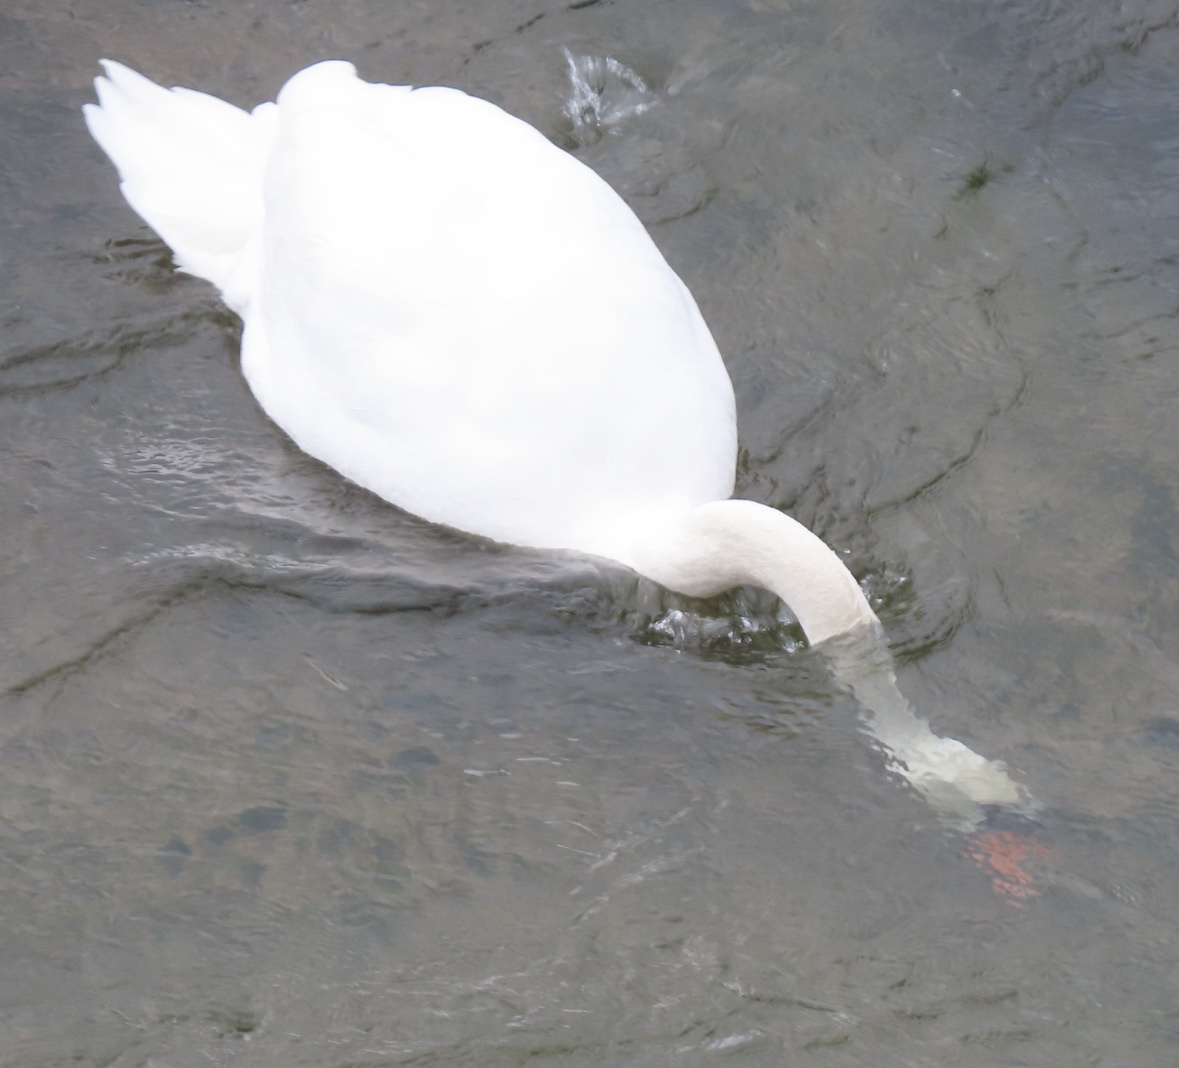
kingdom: Animalia
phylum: Chordata
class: Aves
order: Anseriformes
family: Anatidae
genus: Cygnus
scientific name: Cygnus olor
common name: Mute swan
